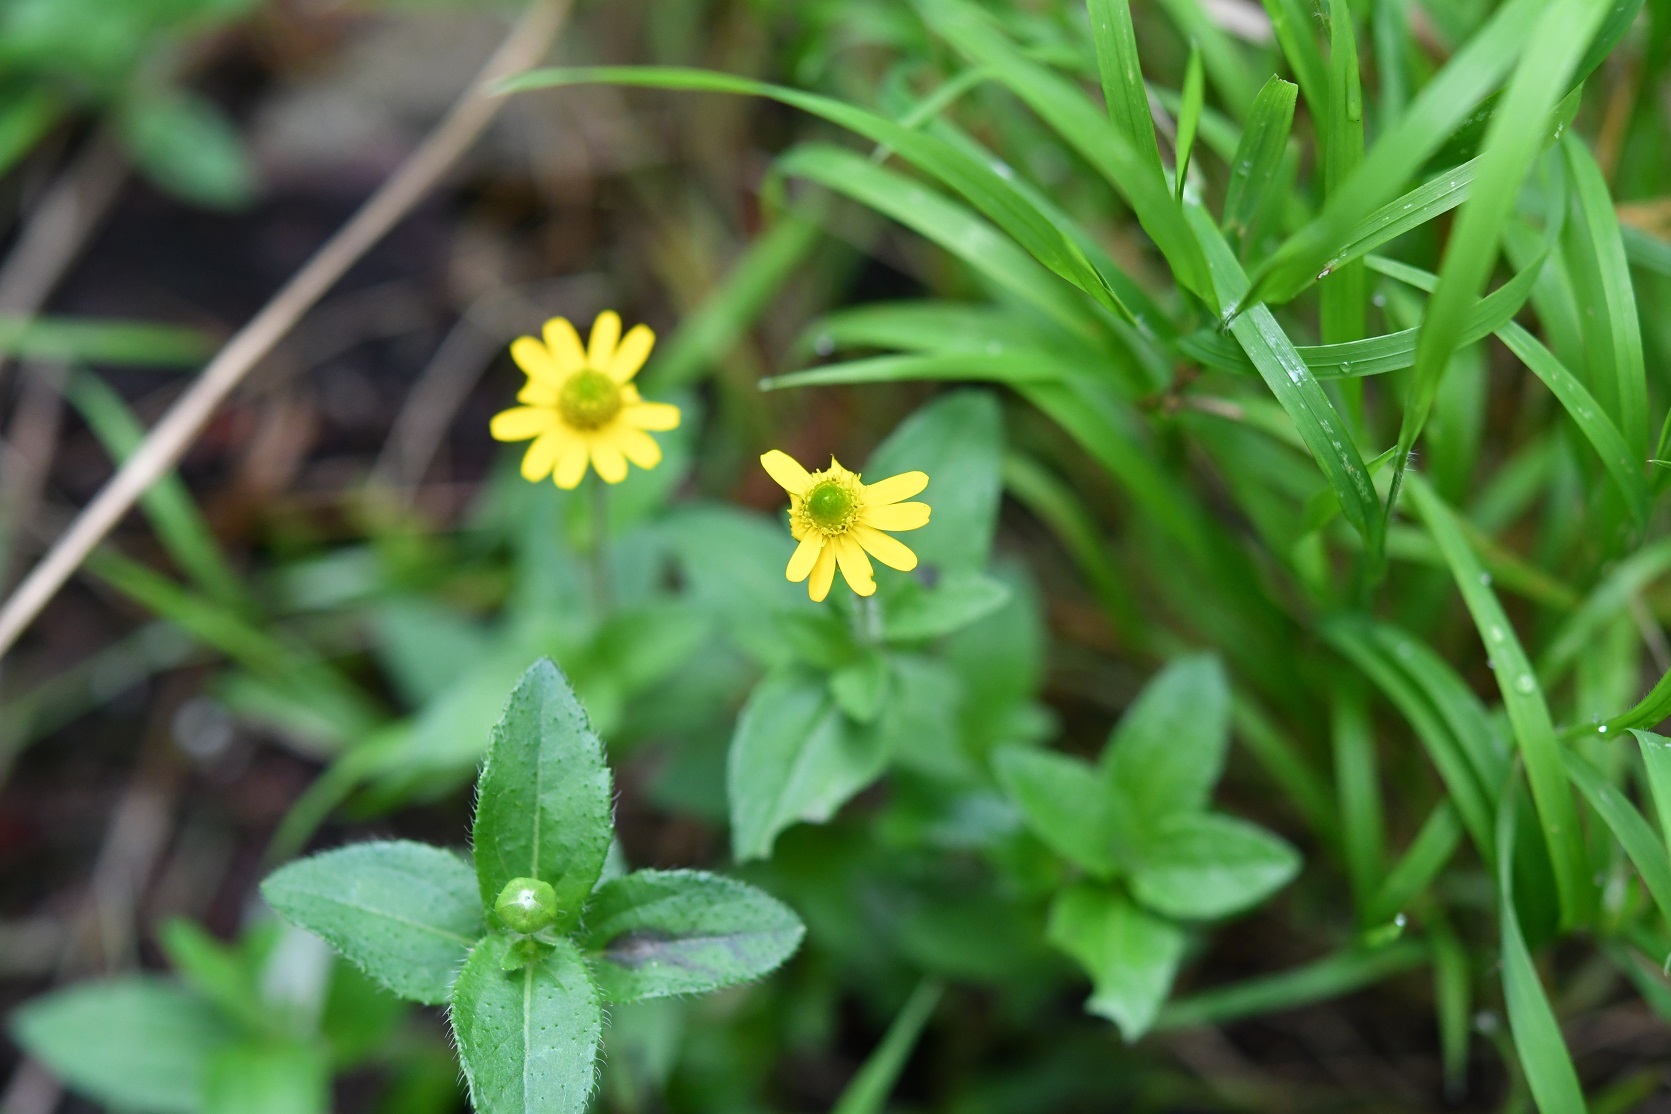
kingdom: Plantae
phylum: Tracheophyta
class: Magnoliopsida
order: Asterales
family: Asteraceae
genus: Melampodium
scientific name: Melampodium montanum
